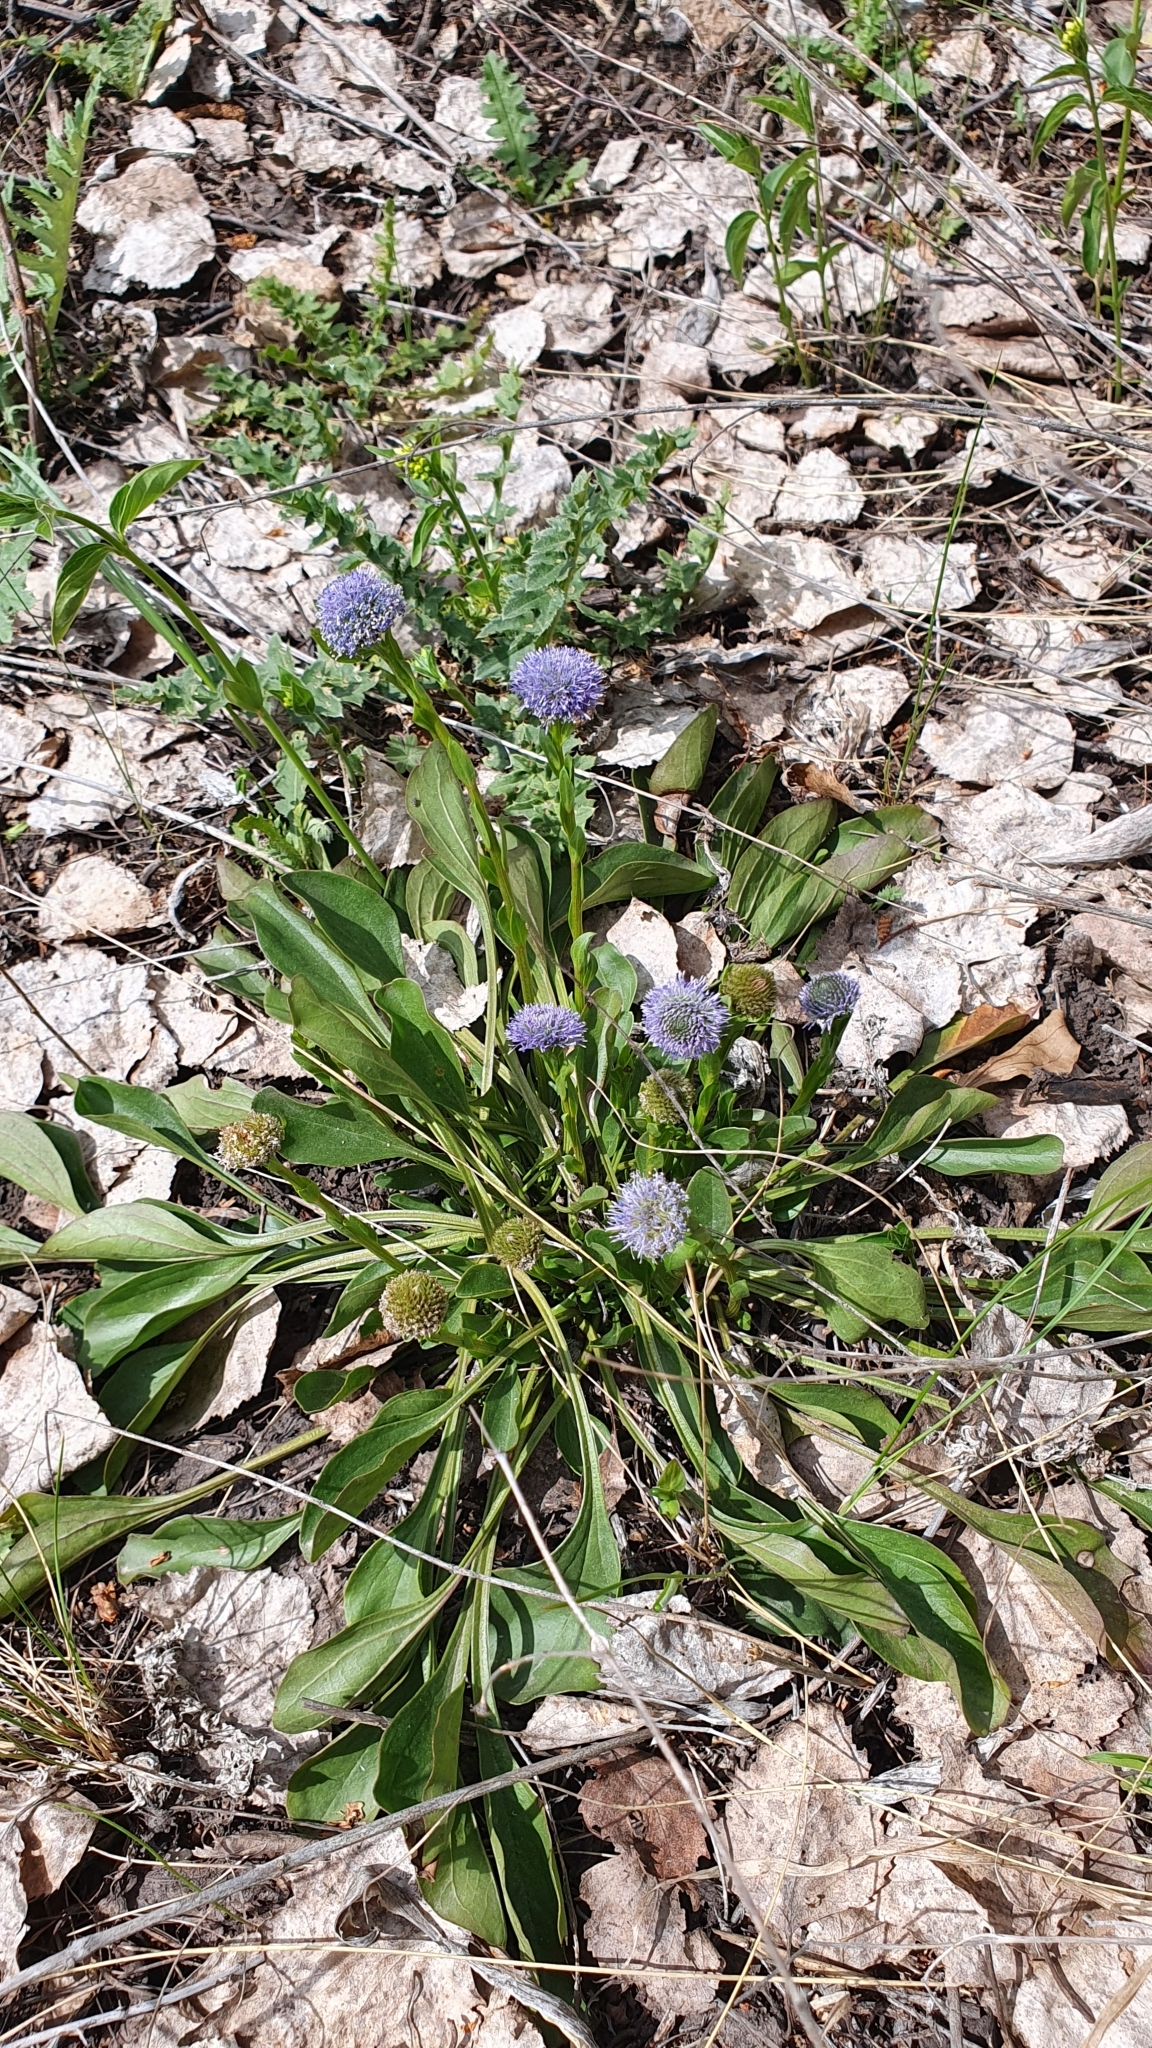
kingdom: Plantae
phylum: Tracheophyta
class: Magnoliopsida
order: Lamiales
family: Plantaginaceae
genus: Globularia
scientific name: Globularia bisnagarica
